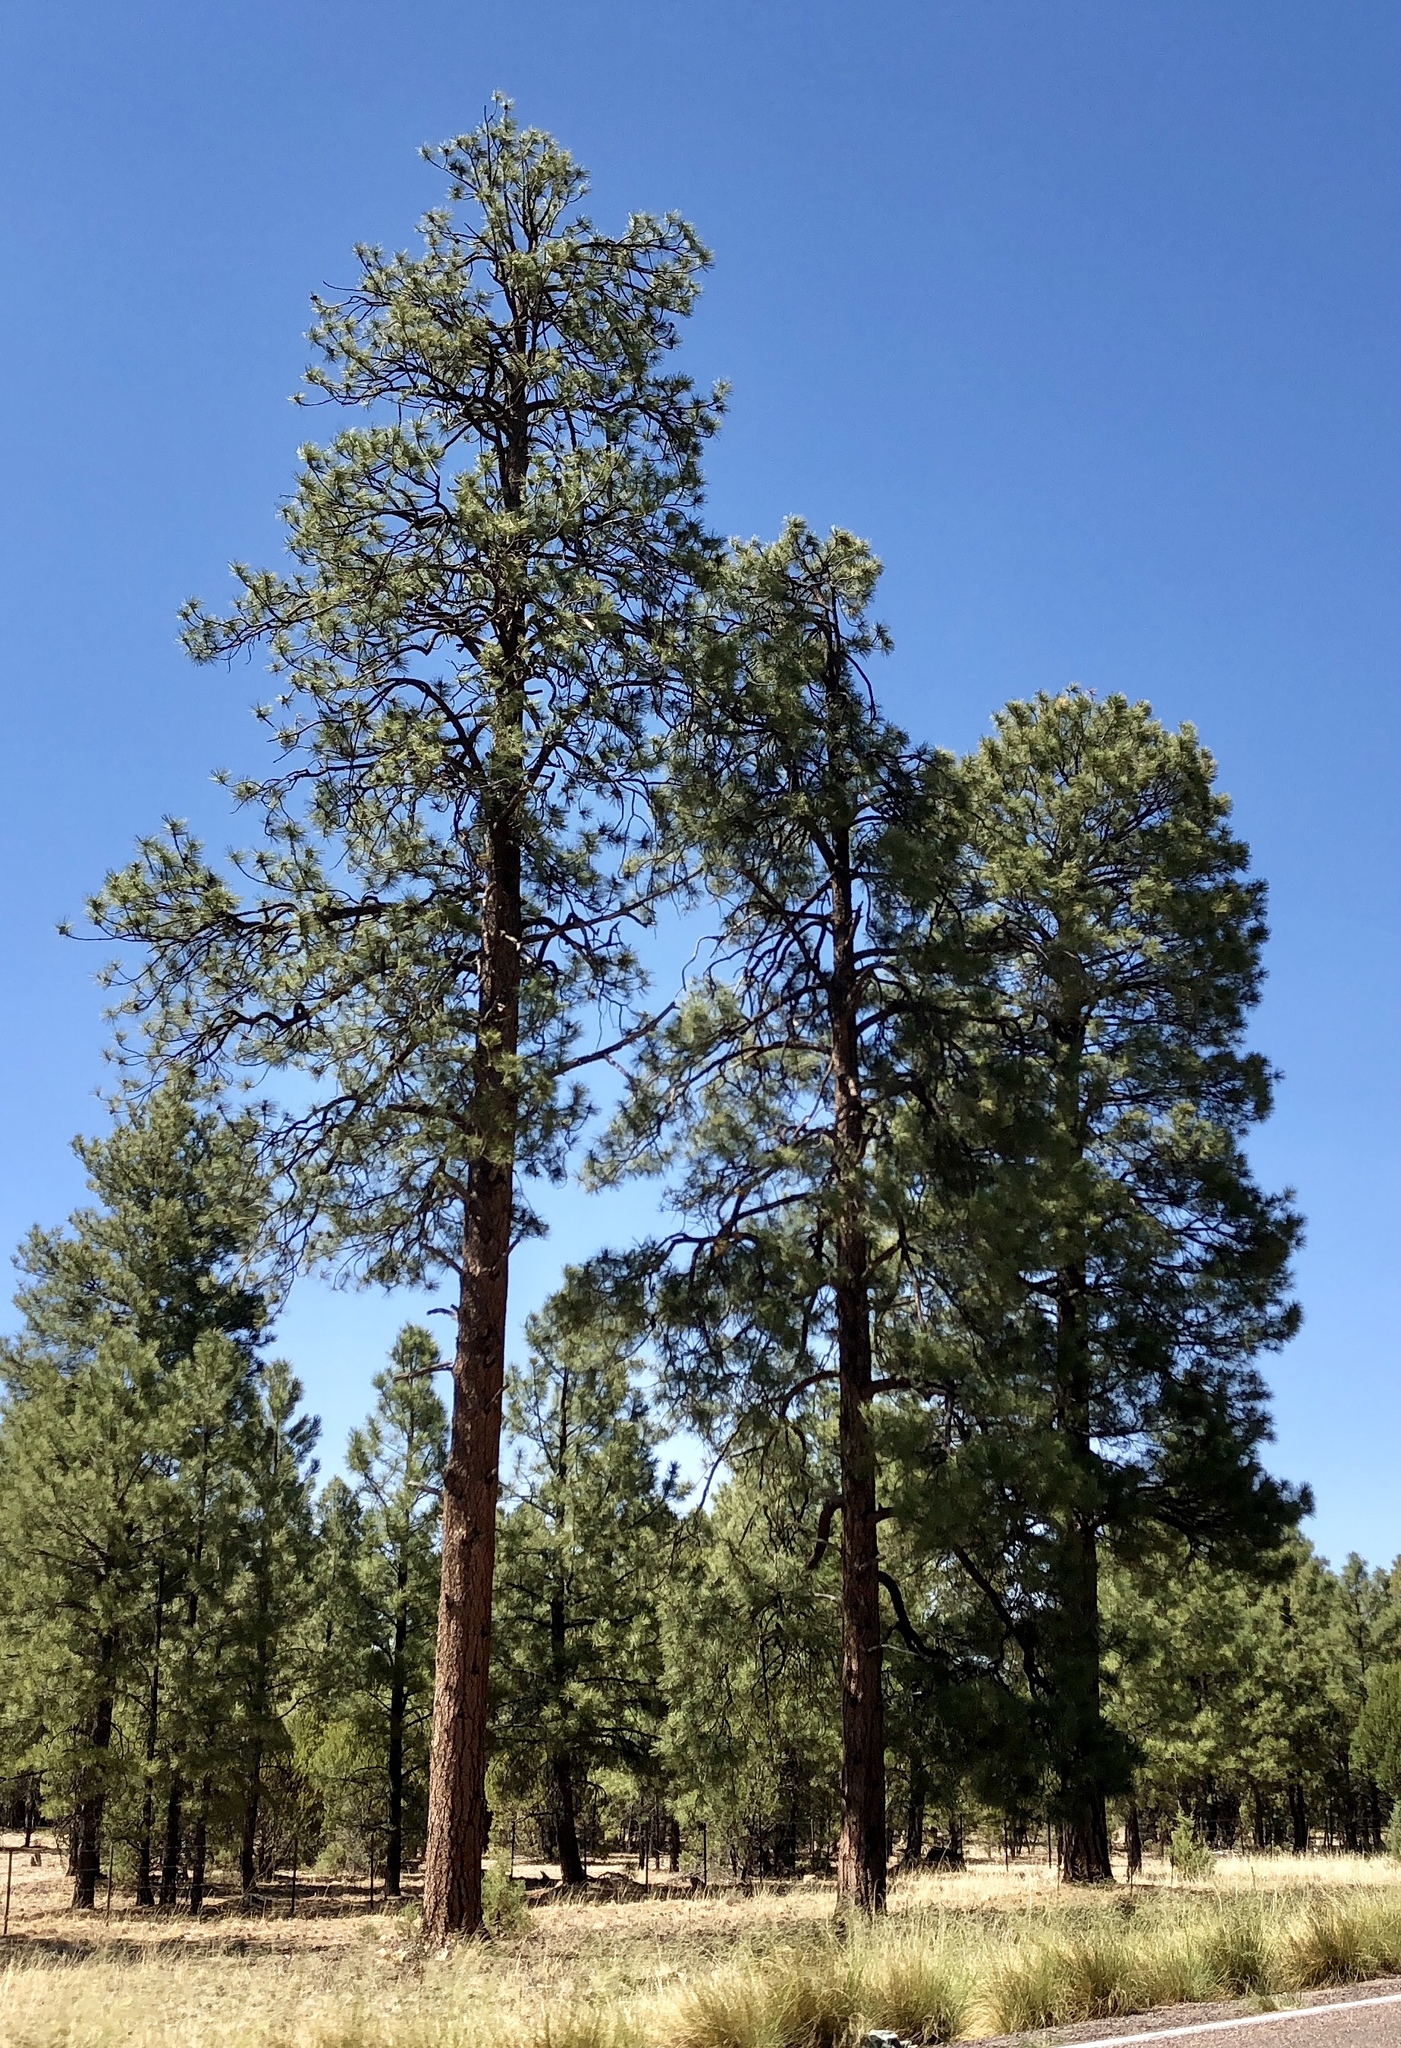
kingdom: Plantae
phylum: Tracheophyta
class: Pinopsida
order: Pinales
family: Pinaceae
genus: Pinus
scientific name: Pinus ponderosa
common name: Western yellow-pine
